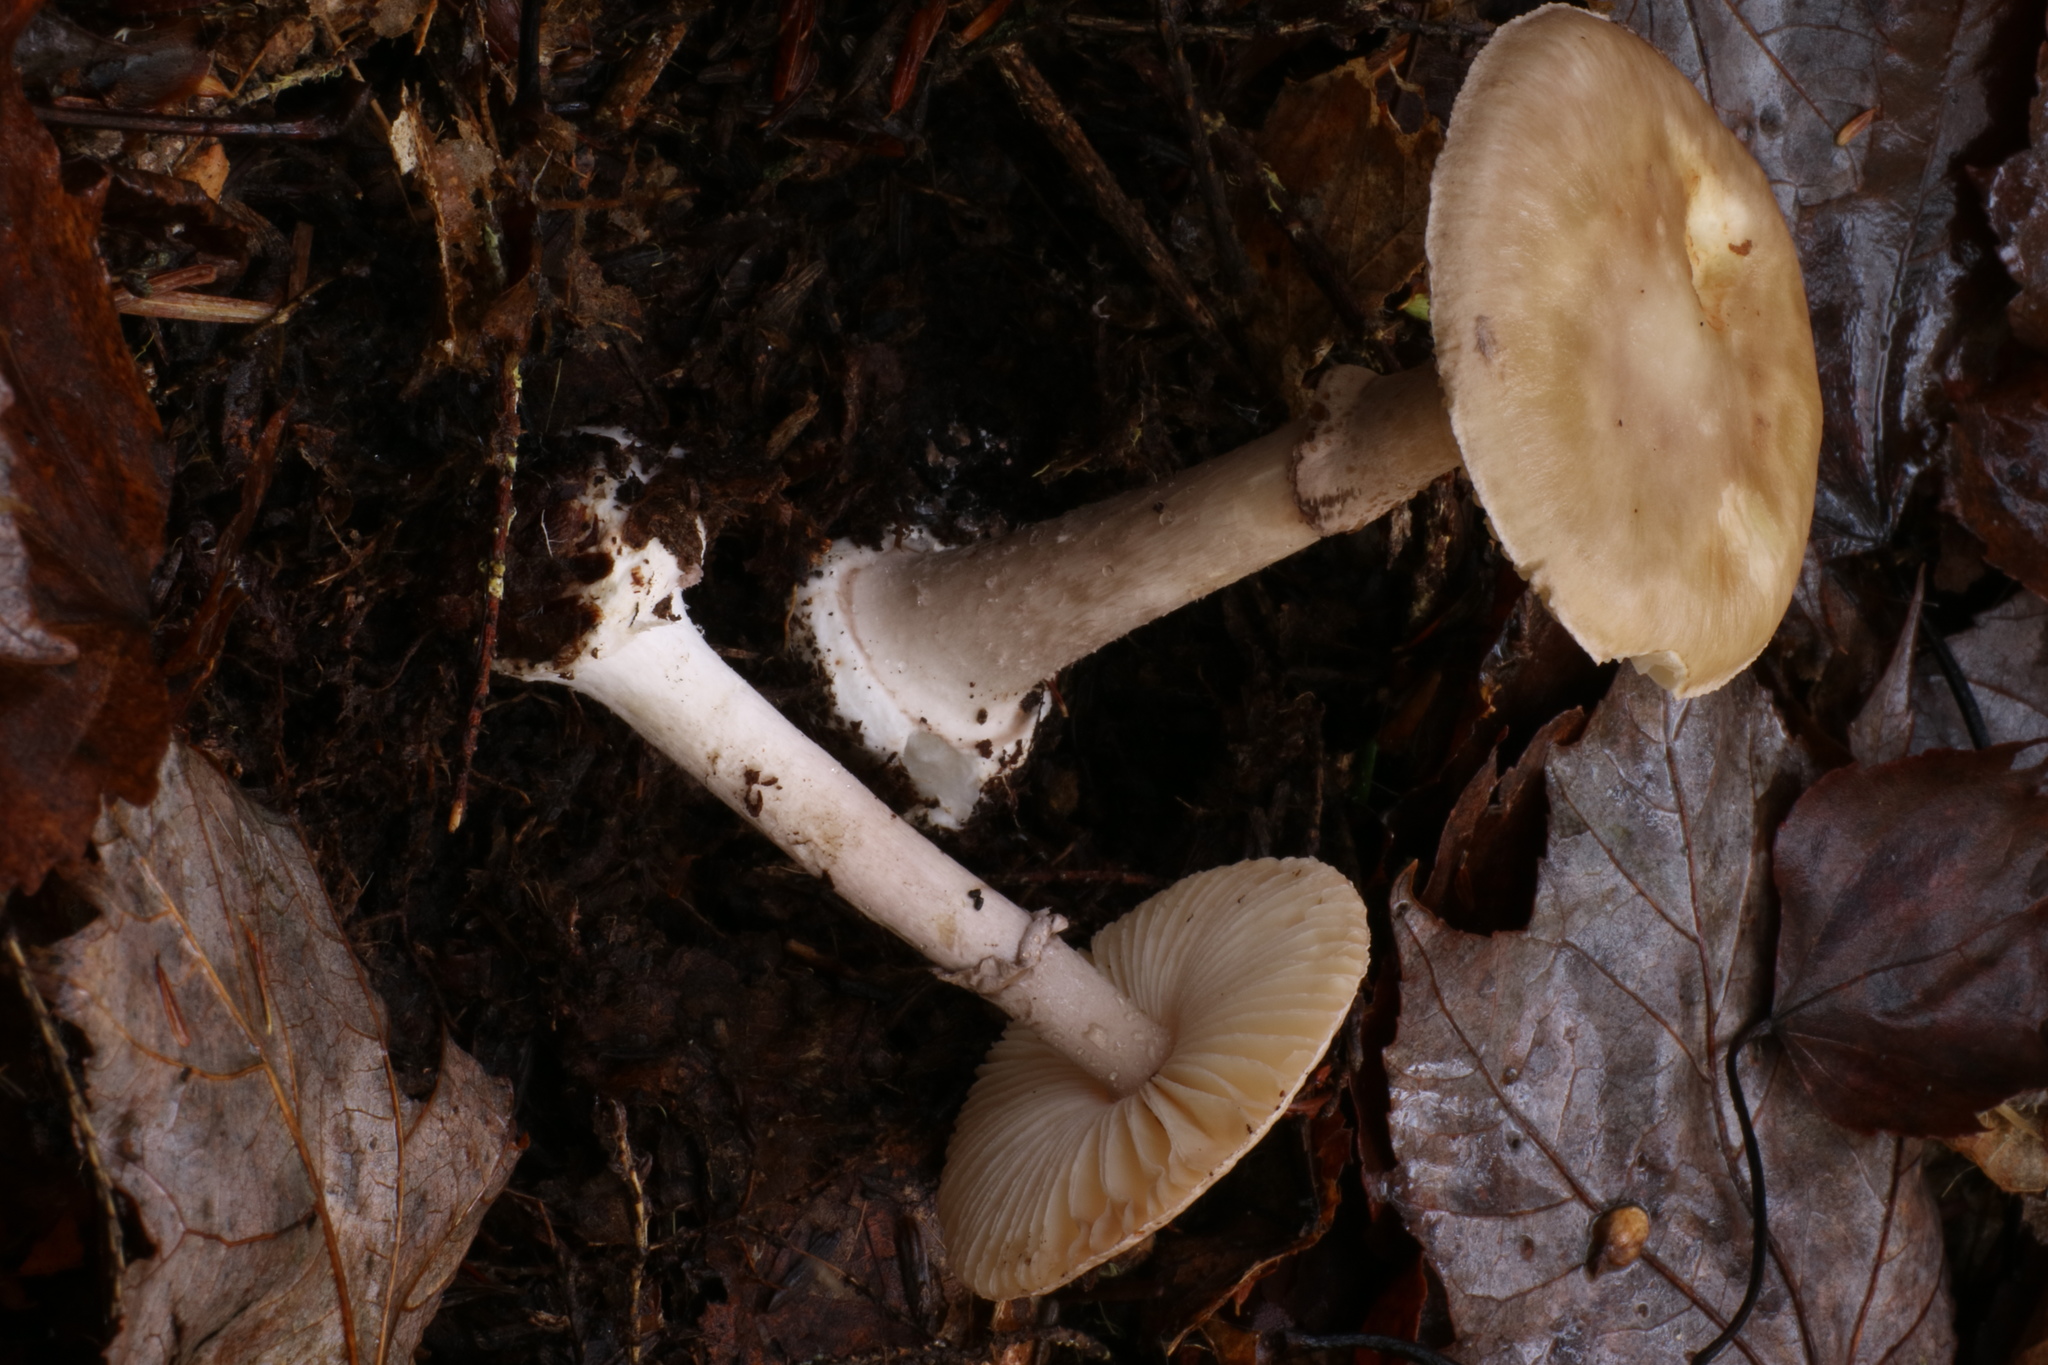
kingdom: Fungi
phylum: Basidiomycota
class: Agaricomycetes
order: Agaricales
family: Amanitaceae
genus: Amanita
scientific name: Amanita porphyria
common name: Grey veiled amanita
